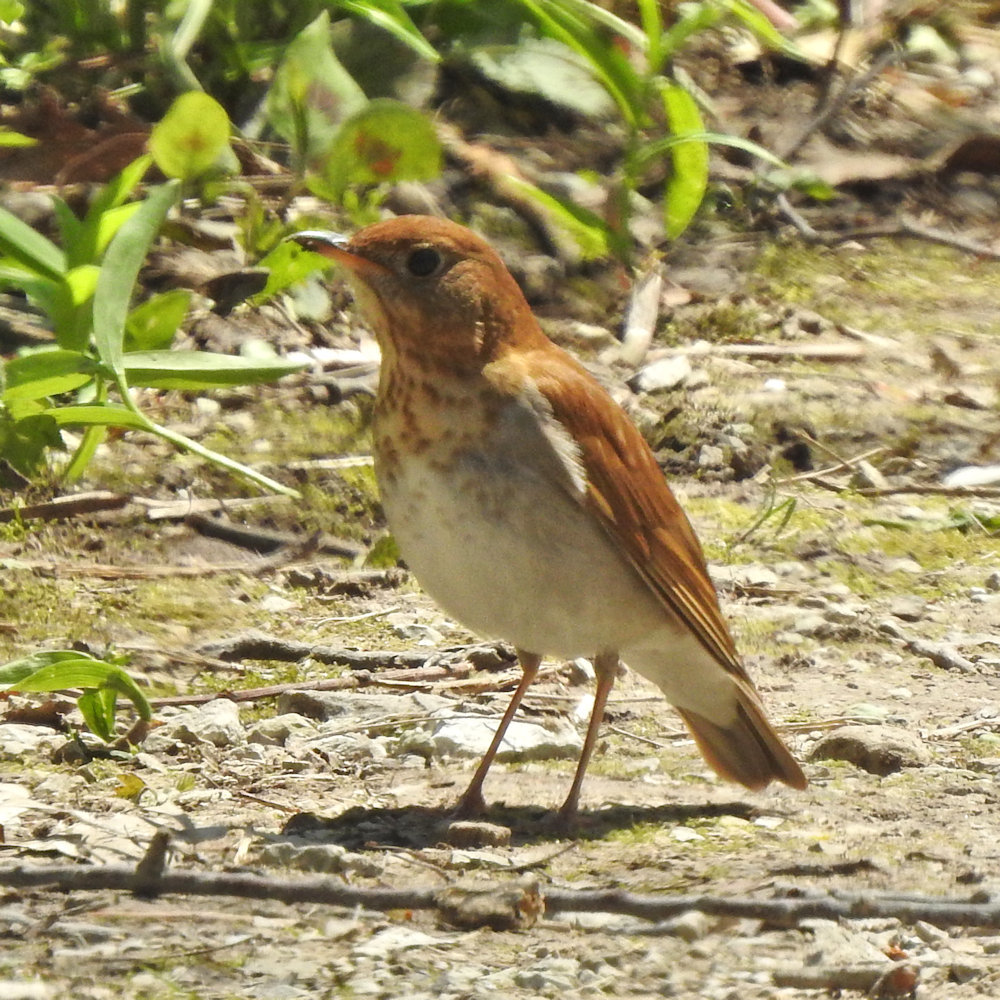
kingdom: Animalia
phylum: Chordata
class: Aves
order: Passeriformes
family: Turdidae
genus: Catharus
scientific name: Catharus fuscescens
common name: Veery
